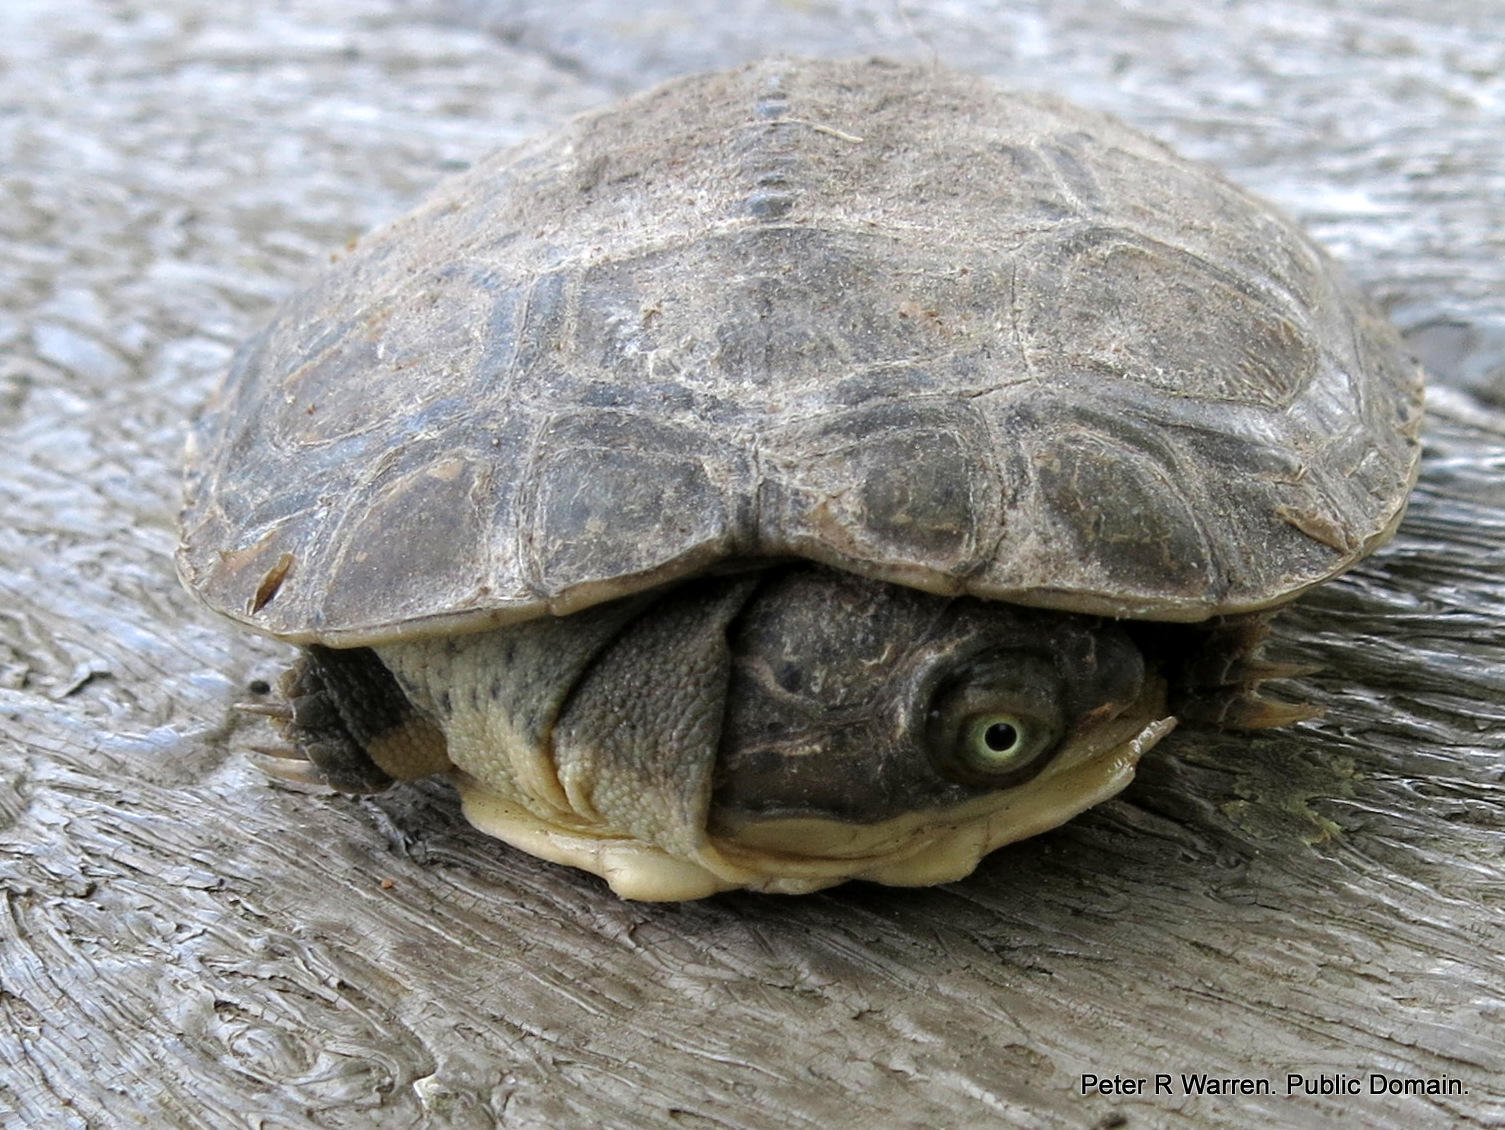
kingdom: Animalia
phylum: Chordata
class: Testudines
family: Pelomedusidae
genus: Pelomedusa
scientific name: Pelomedusa galeata
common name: South african helmeted terrapin
